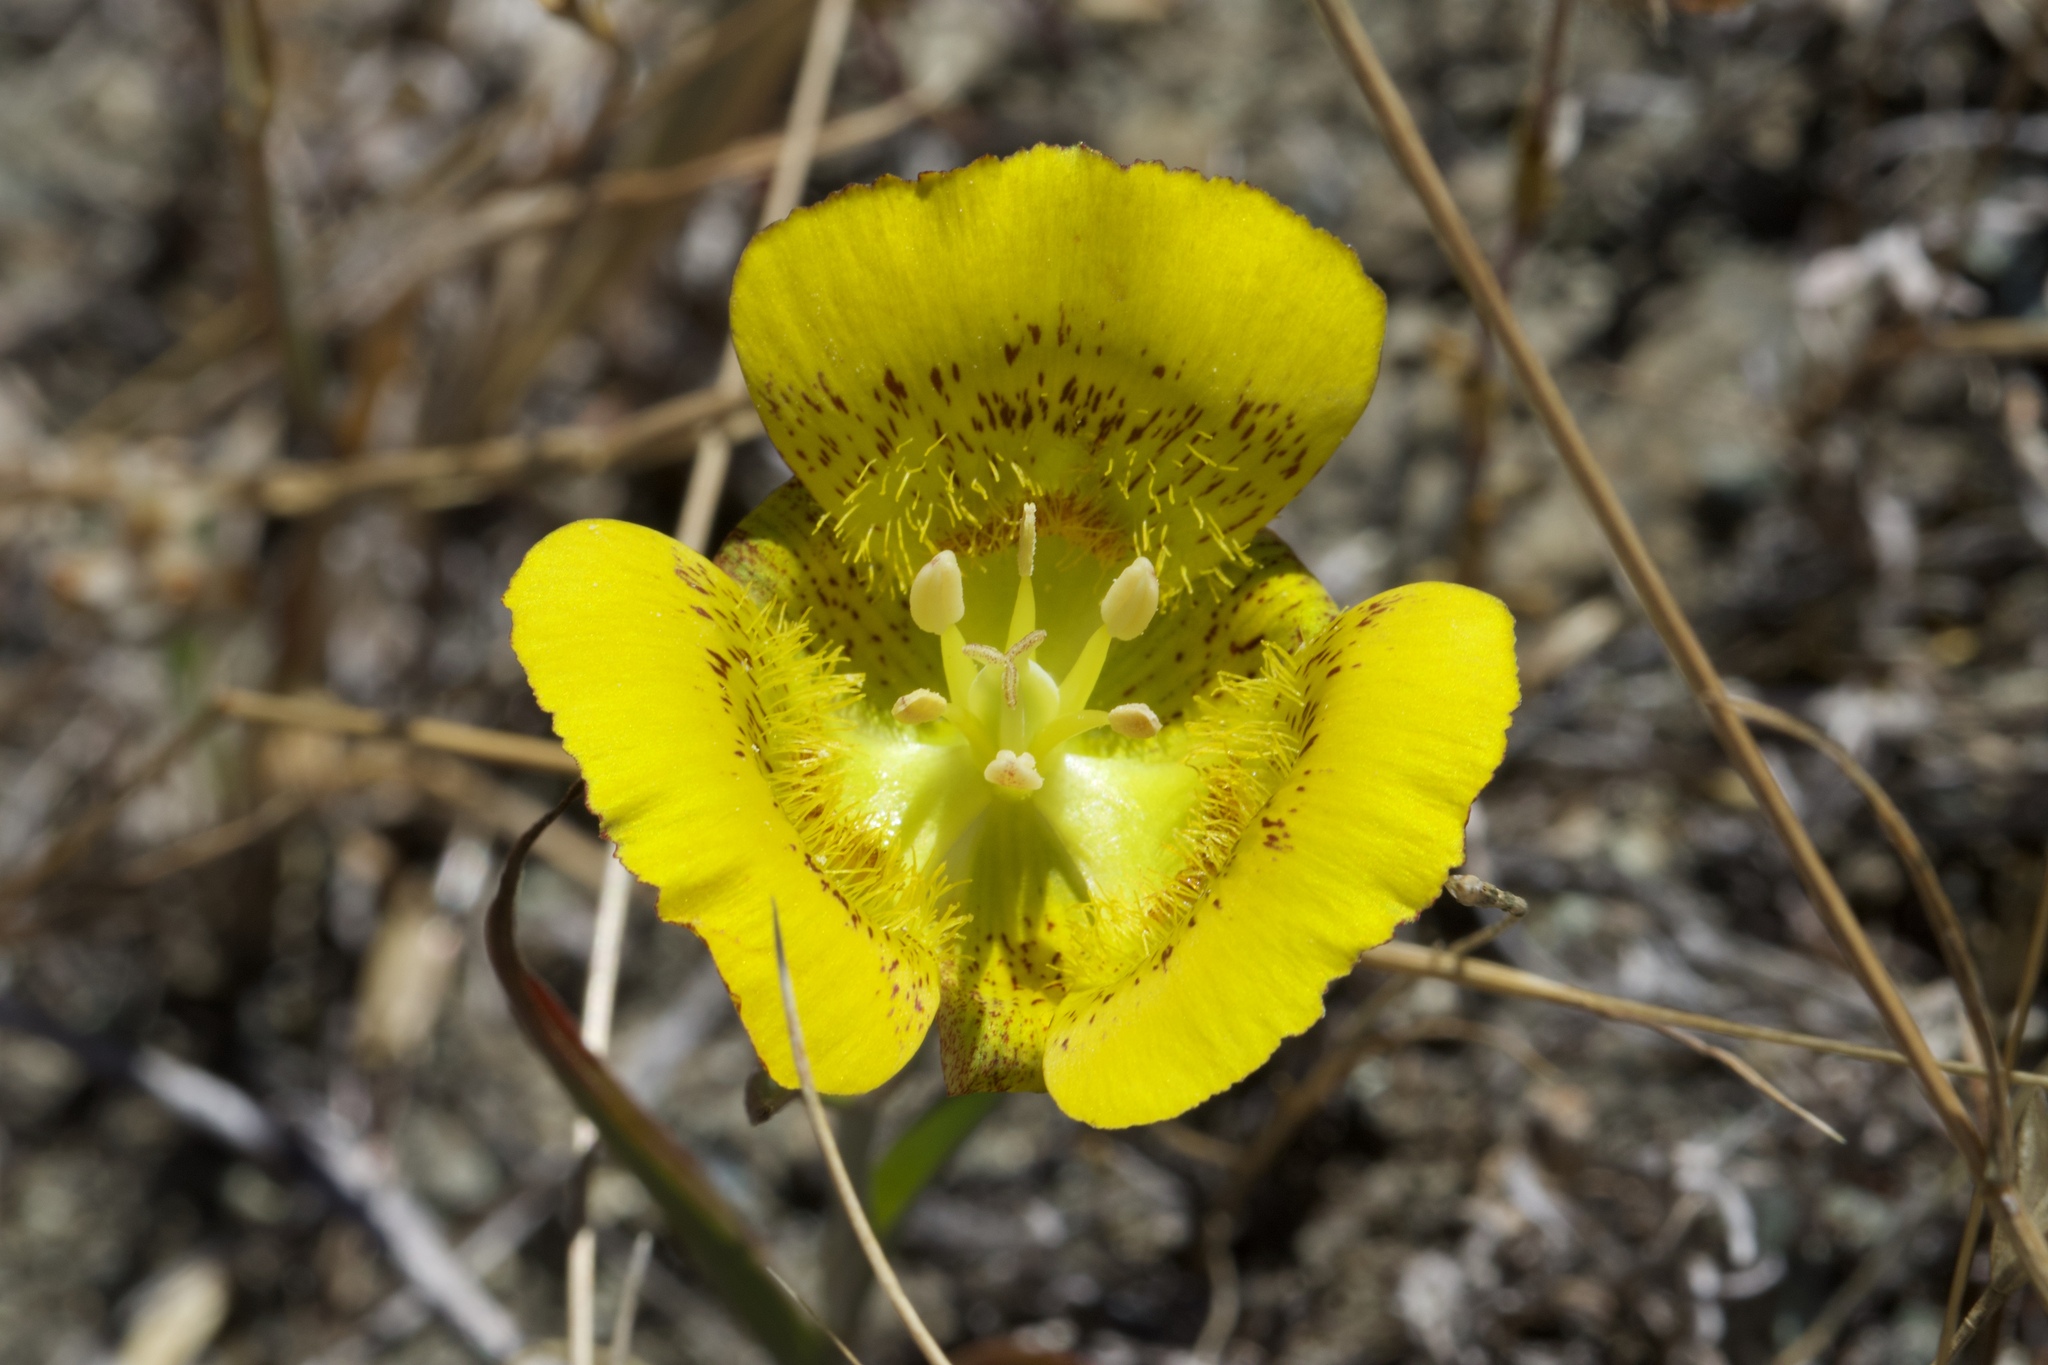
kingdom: Plantae
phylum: Tracheophyta
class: Liliopsida
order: Liliales
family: Liliaceae
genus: Calochortus
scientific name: Calochortus luteus
